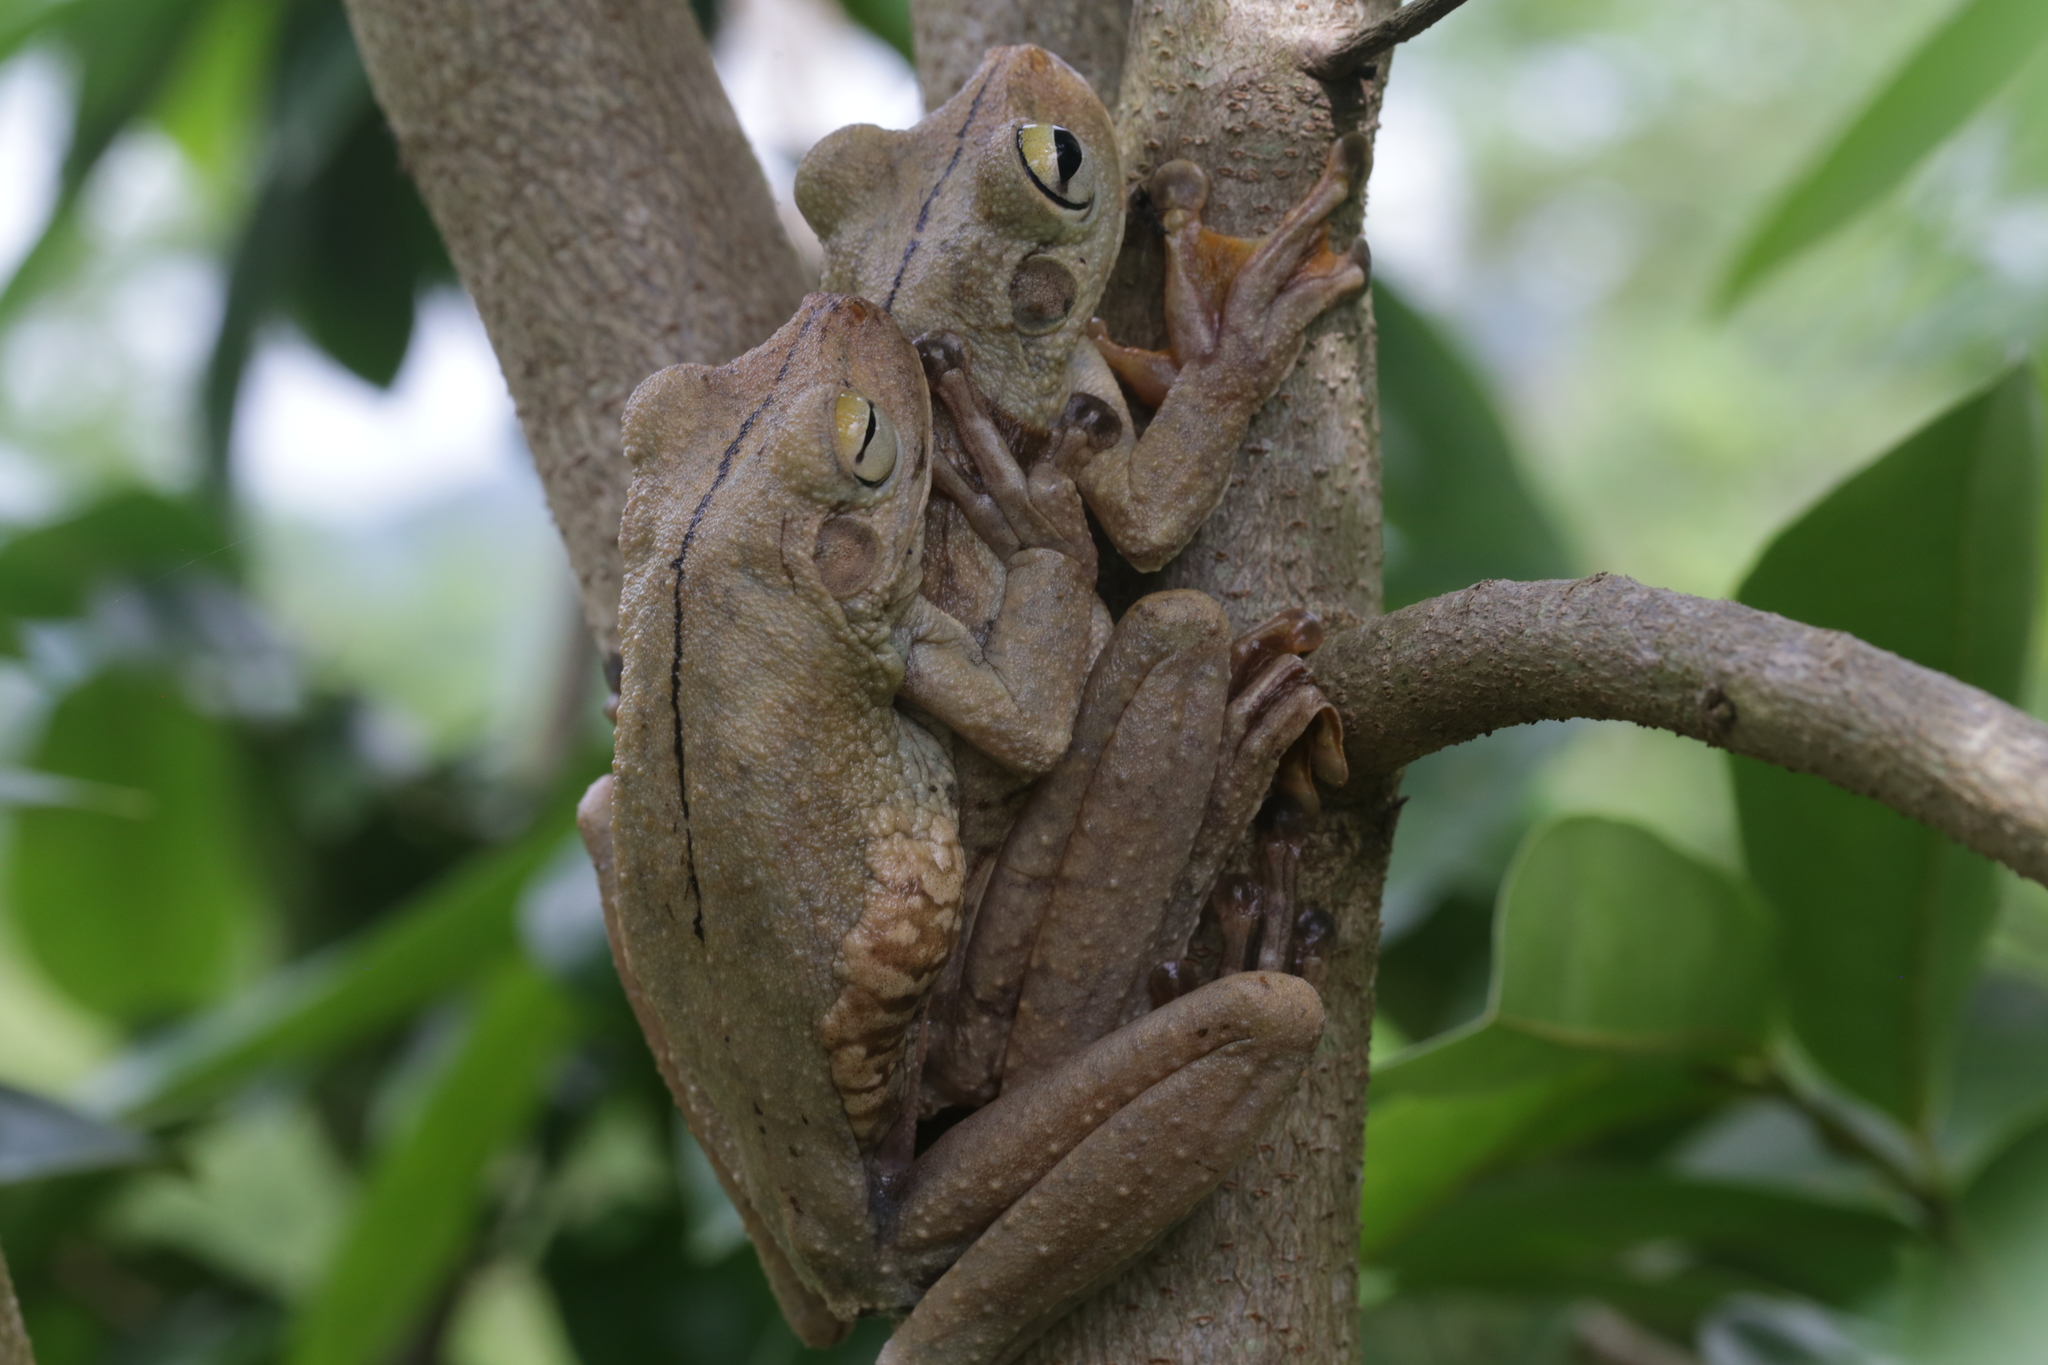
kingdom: Animalia
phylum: Chordata
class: Amphibia
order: Anura
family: Hylidae
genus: Boana
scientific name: Boana rosenbergi
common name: Rosenberg´s gladiator treefrog
